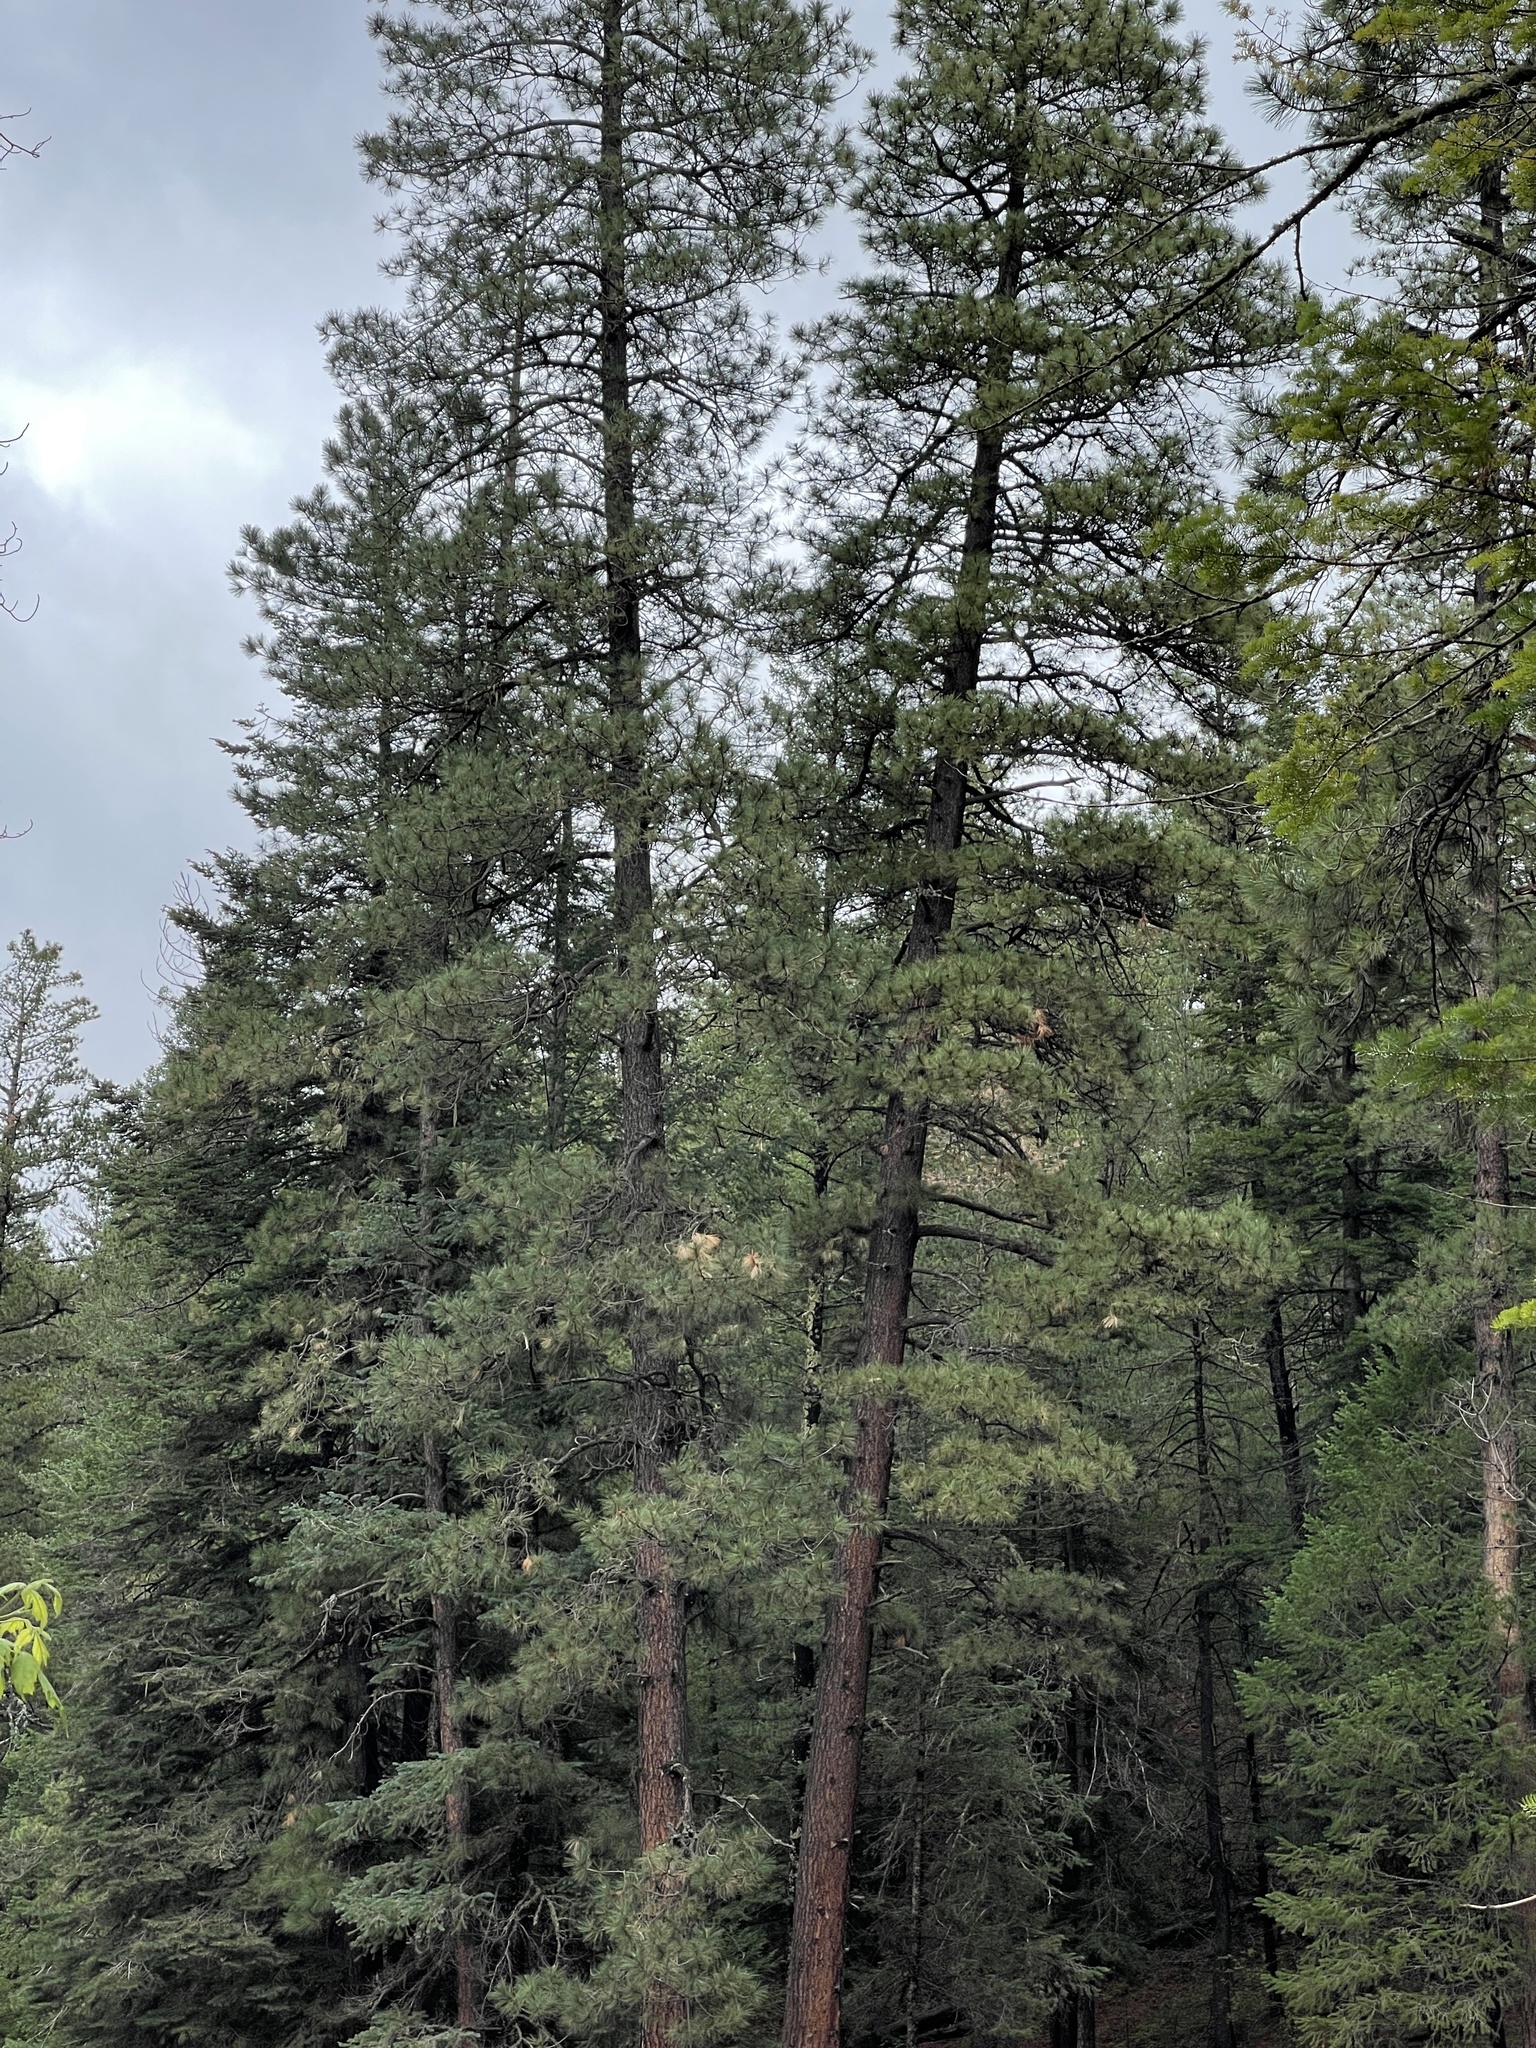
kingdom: Plantae
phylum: Tracheophyta
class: Pinopsida
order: Pinales
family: Pinaceae
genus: Pinus
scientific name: Pinus ponderosa
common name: Western yellow-pine
